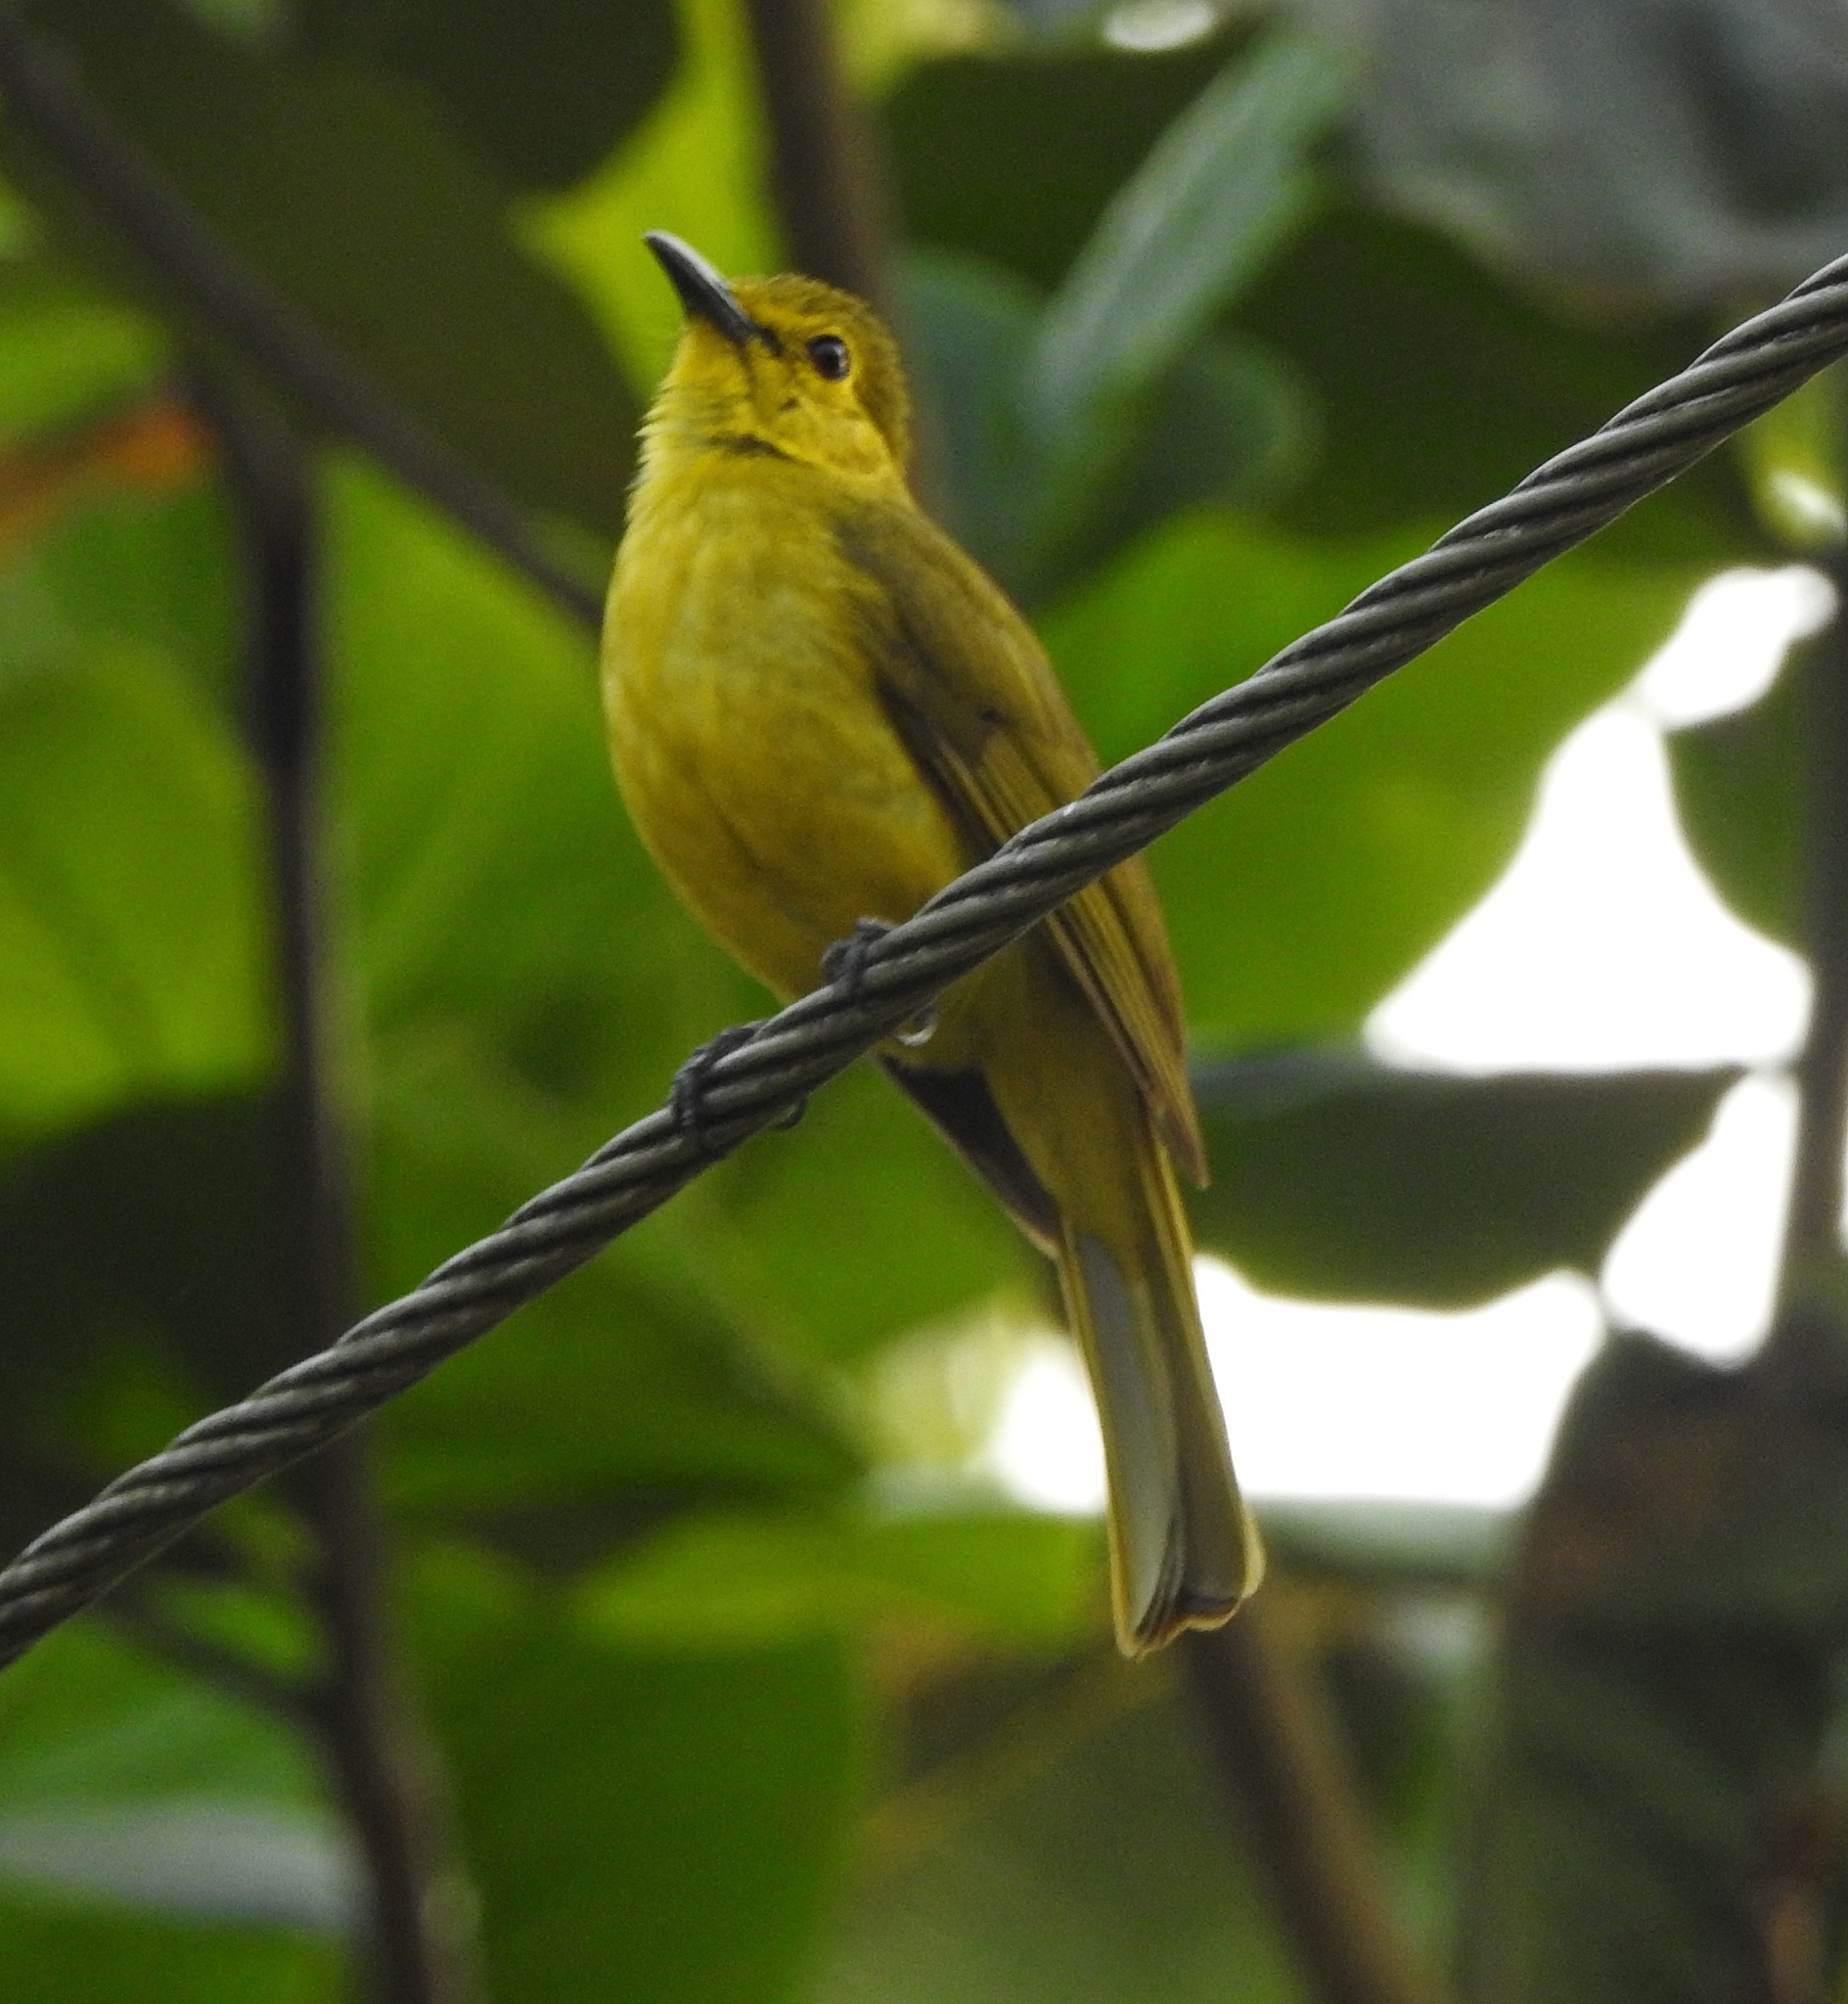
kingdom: Animalia
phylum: Chordata
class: Aves
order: Passeriformes
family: Pycnonotidae
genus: Acritillas
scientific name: Acritillas indica
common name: Yellow-browed bulbul
